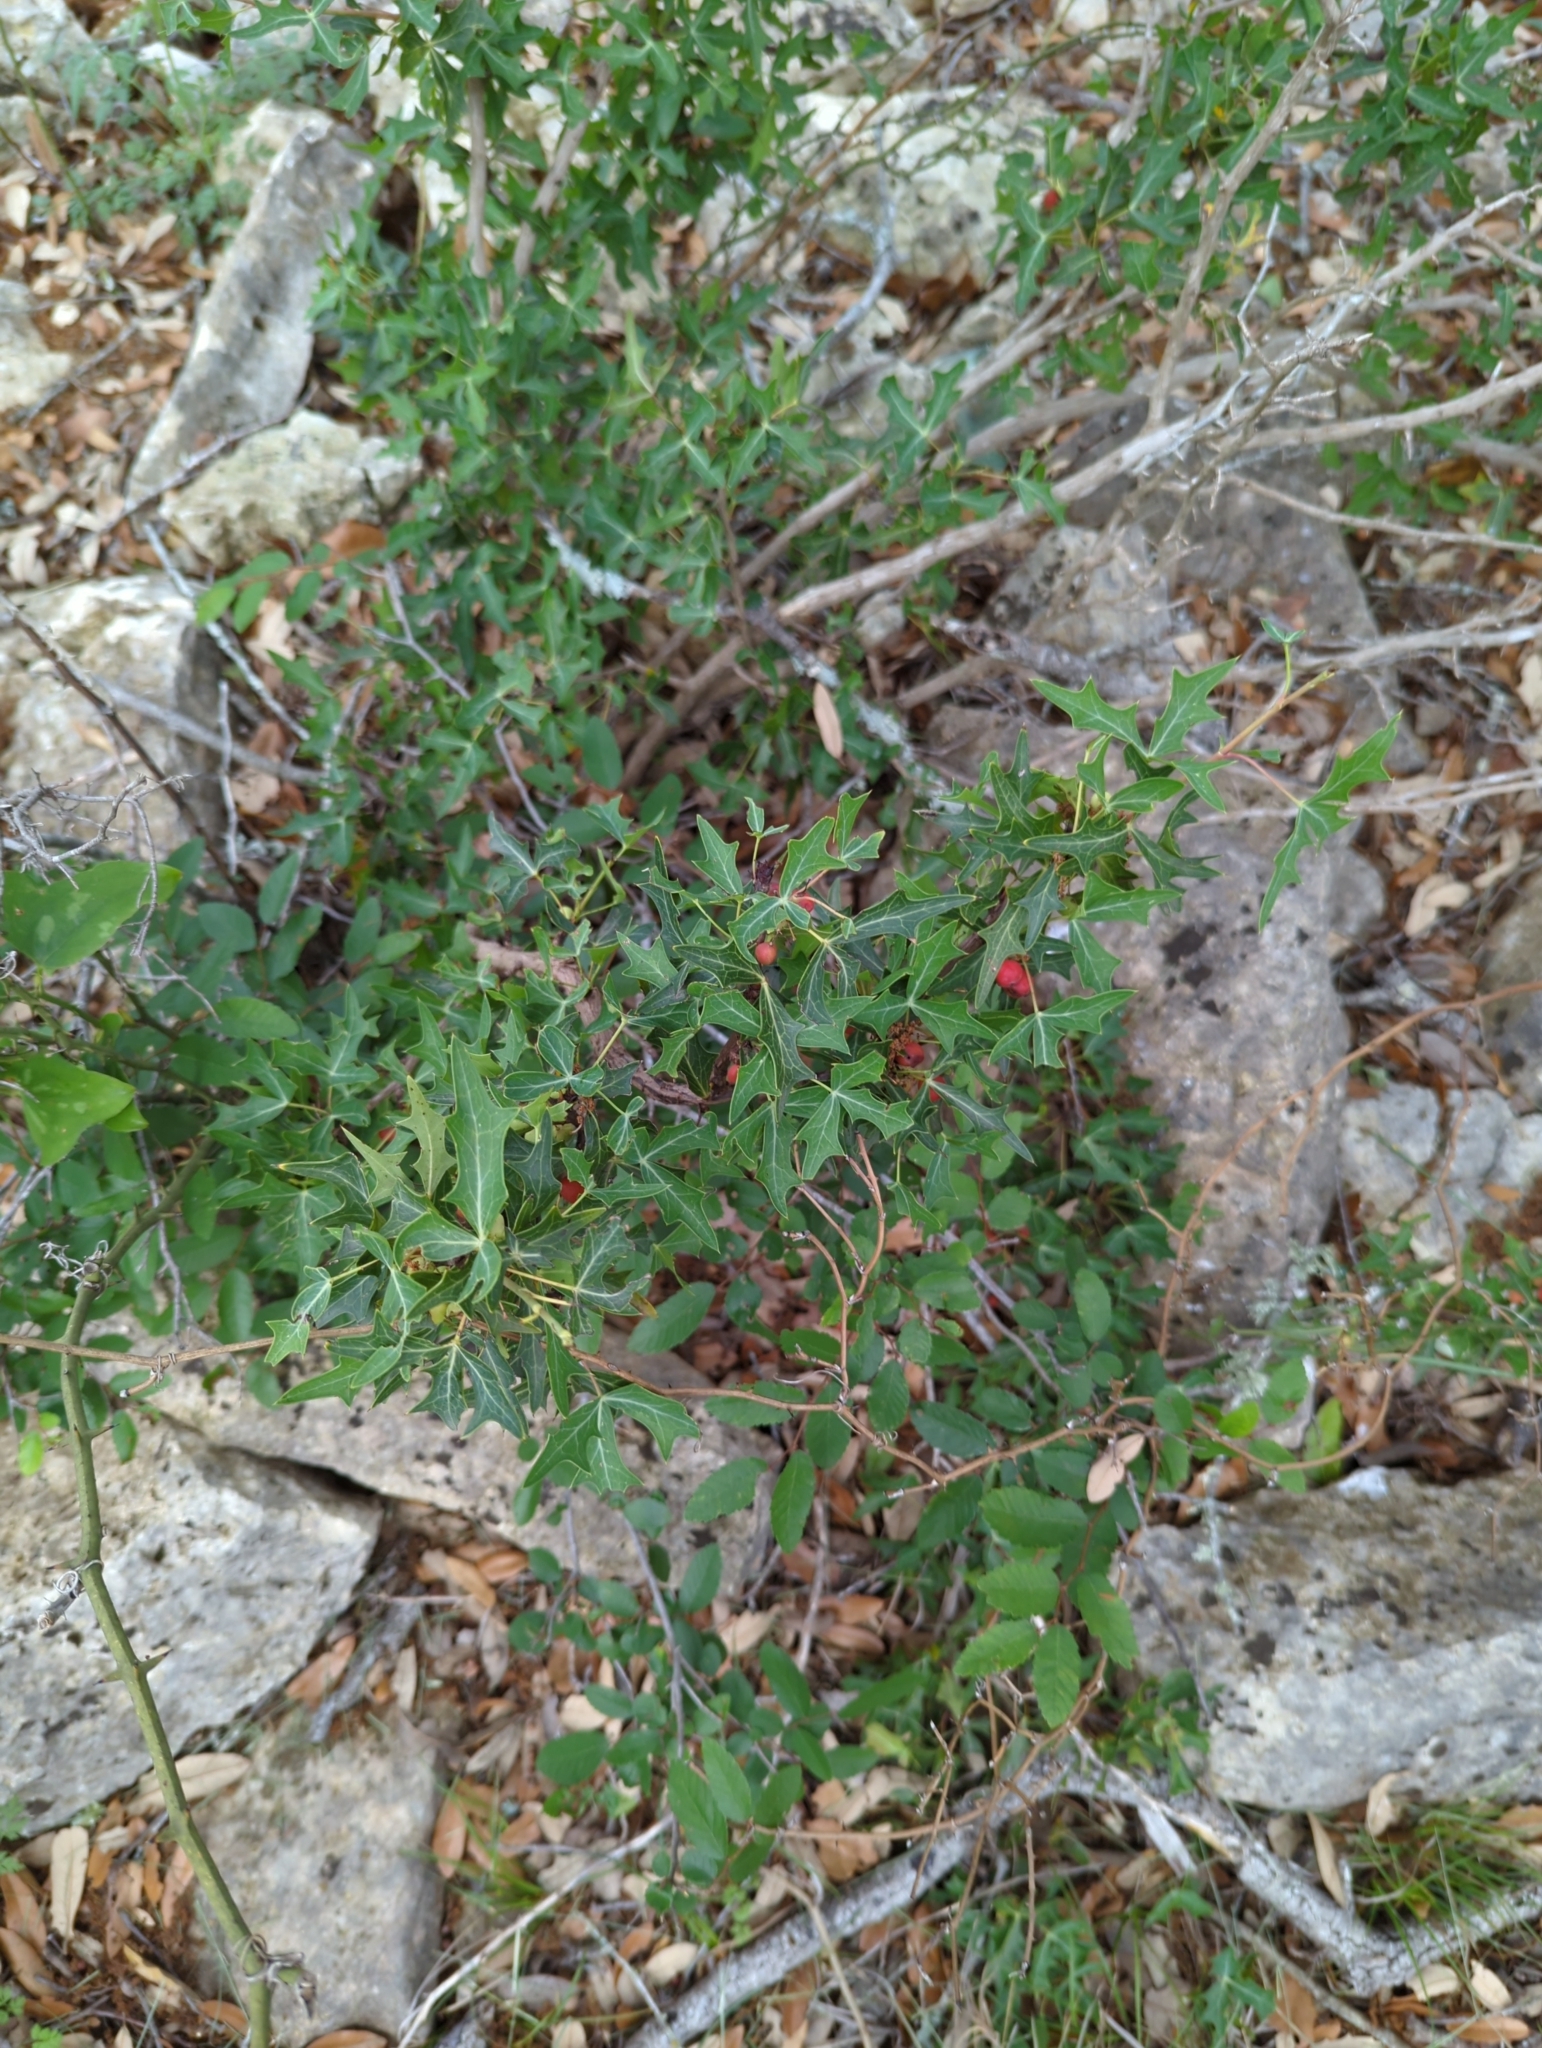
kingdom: Plantae
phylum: Tracheophyta
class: Magnoliopsida
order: Ranunculales
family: Berberidaceae
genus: Alloberberis
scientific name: Alloberberis trifoliolata
